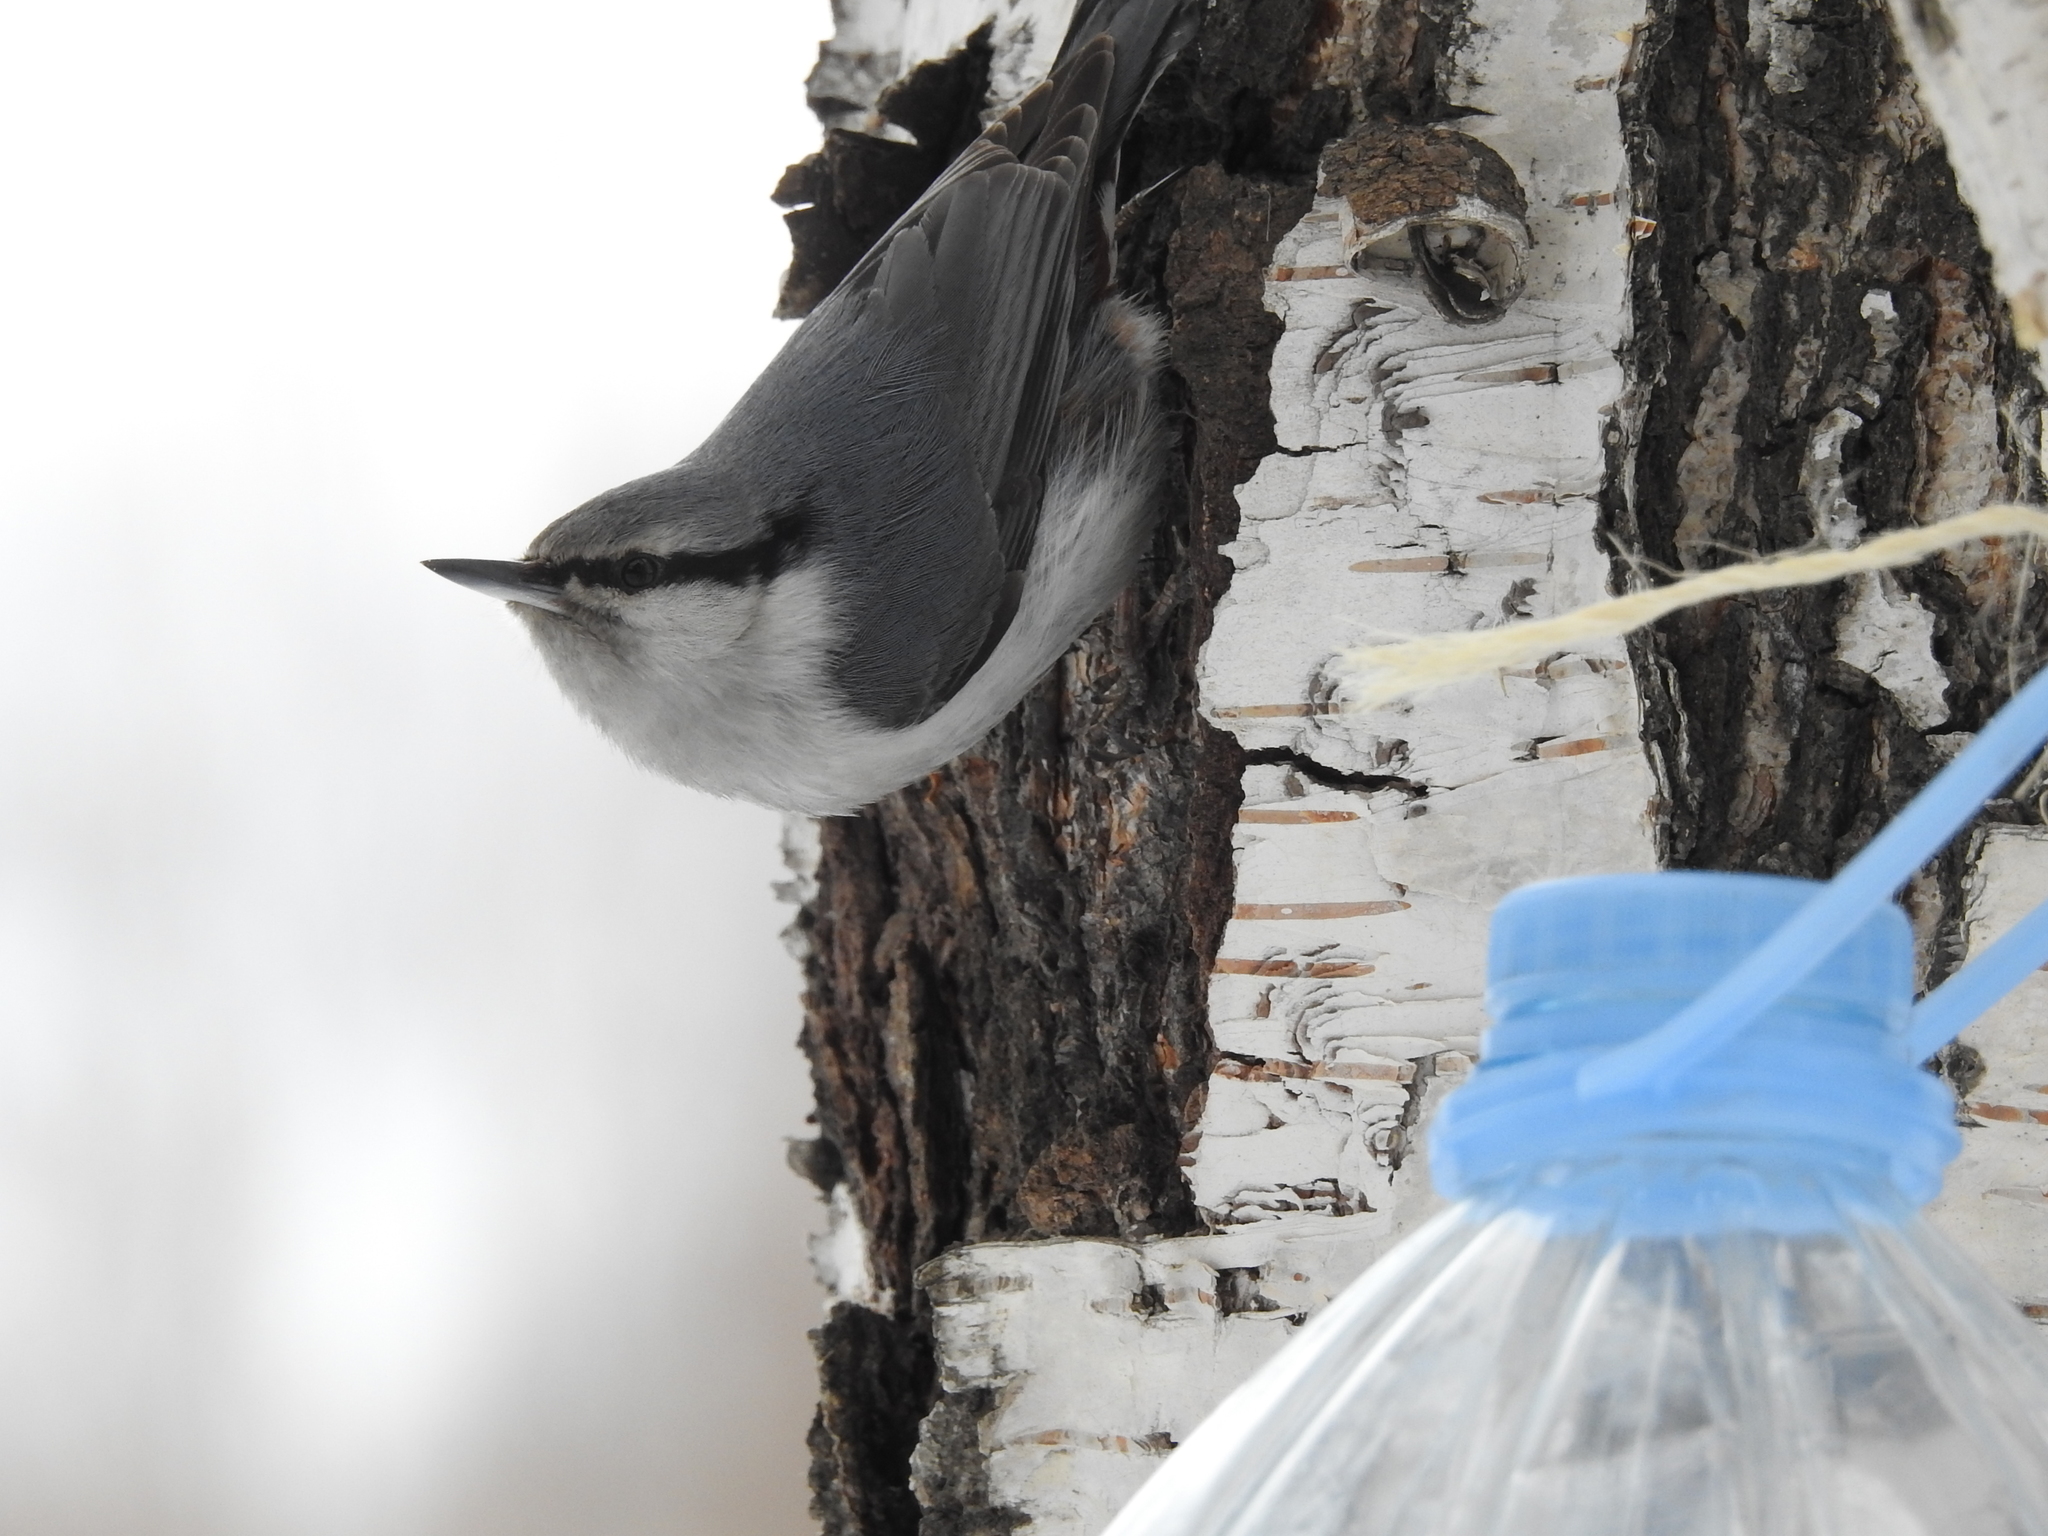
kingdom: Animalia
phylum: Chordata
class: Aves
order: Passeriformes
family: Sittidae
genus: Sitta
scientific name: Sitta europaea
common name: Eurasian nuthatch
